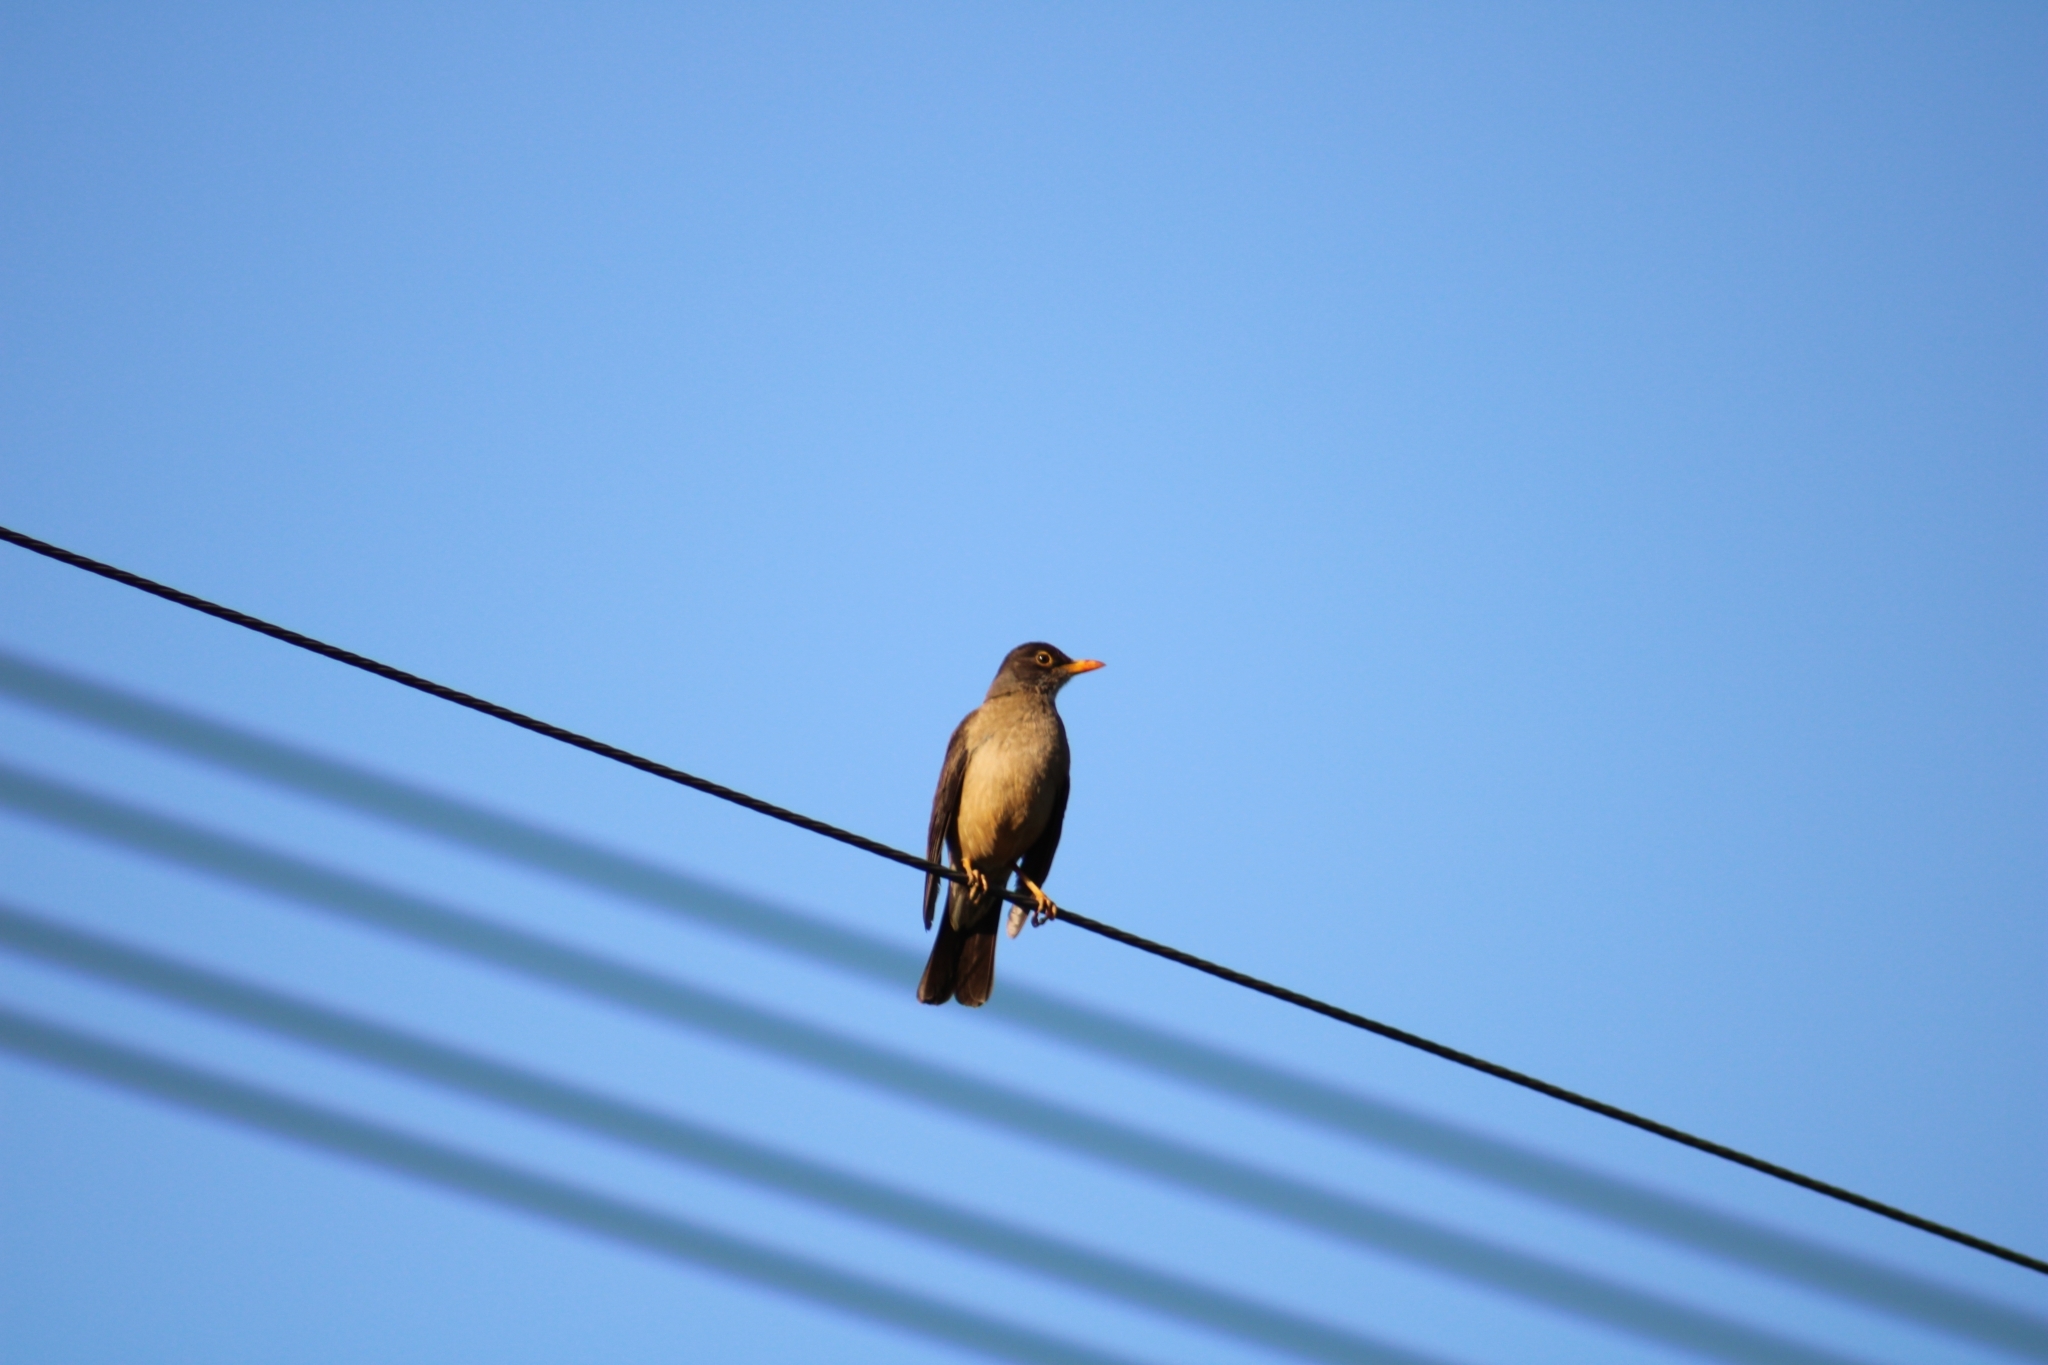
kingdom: Animalia
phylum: Chordata
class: Aves
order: Passeriformes
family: Turdidae
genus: Turdus
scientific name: Turdus falcklandii
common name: Austral thrush
